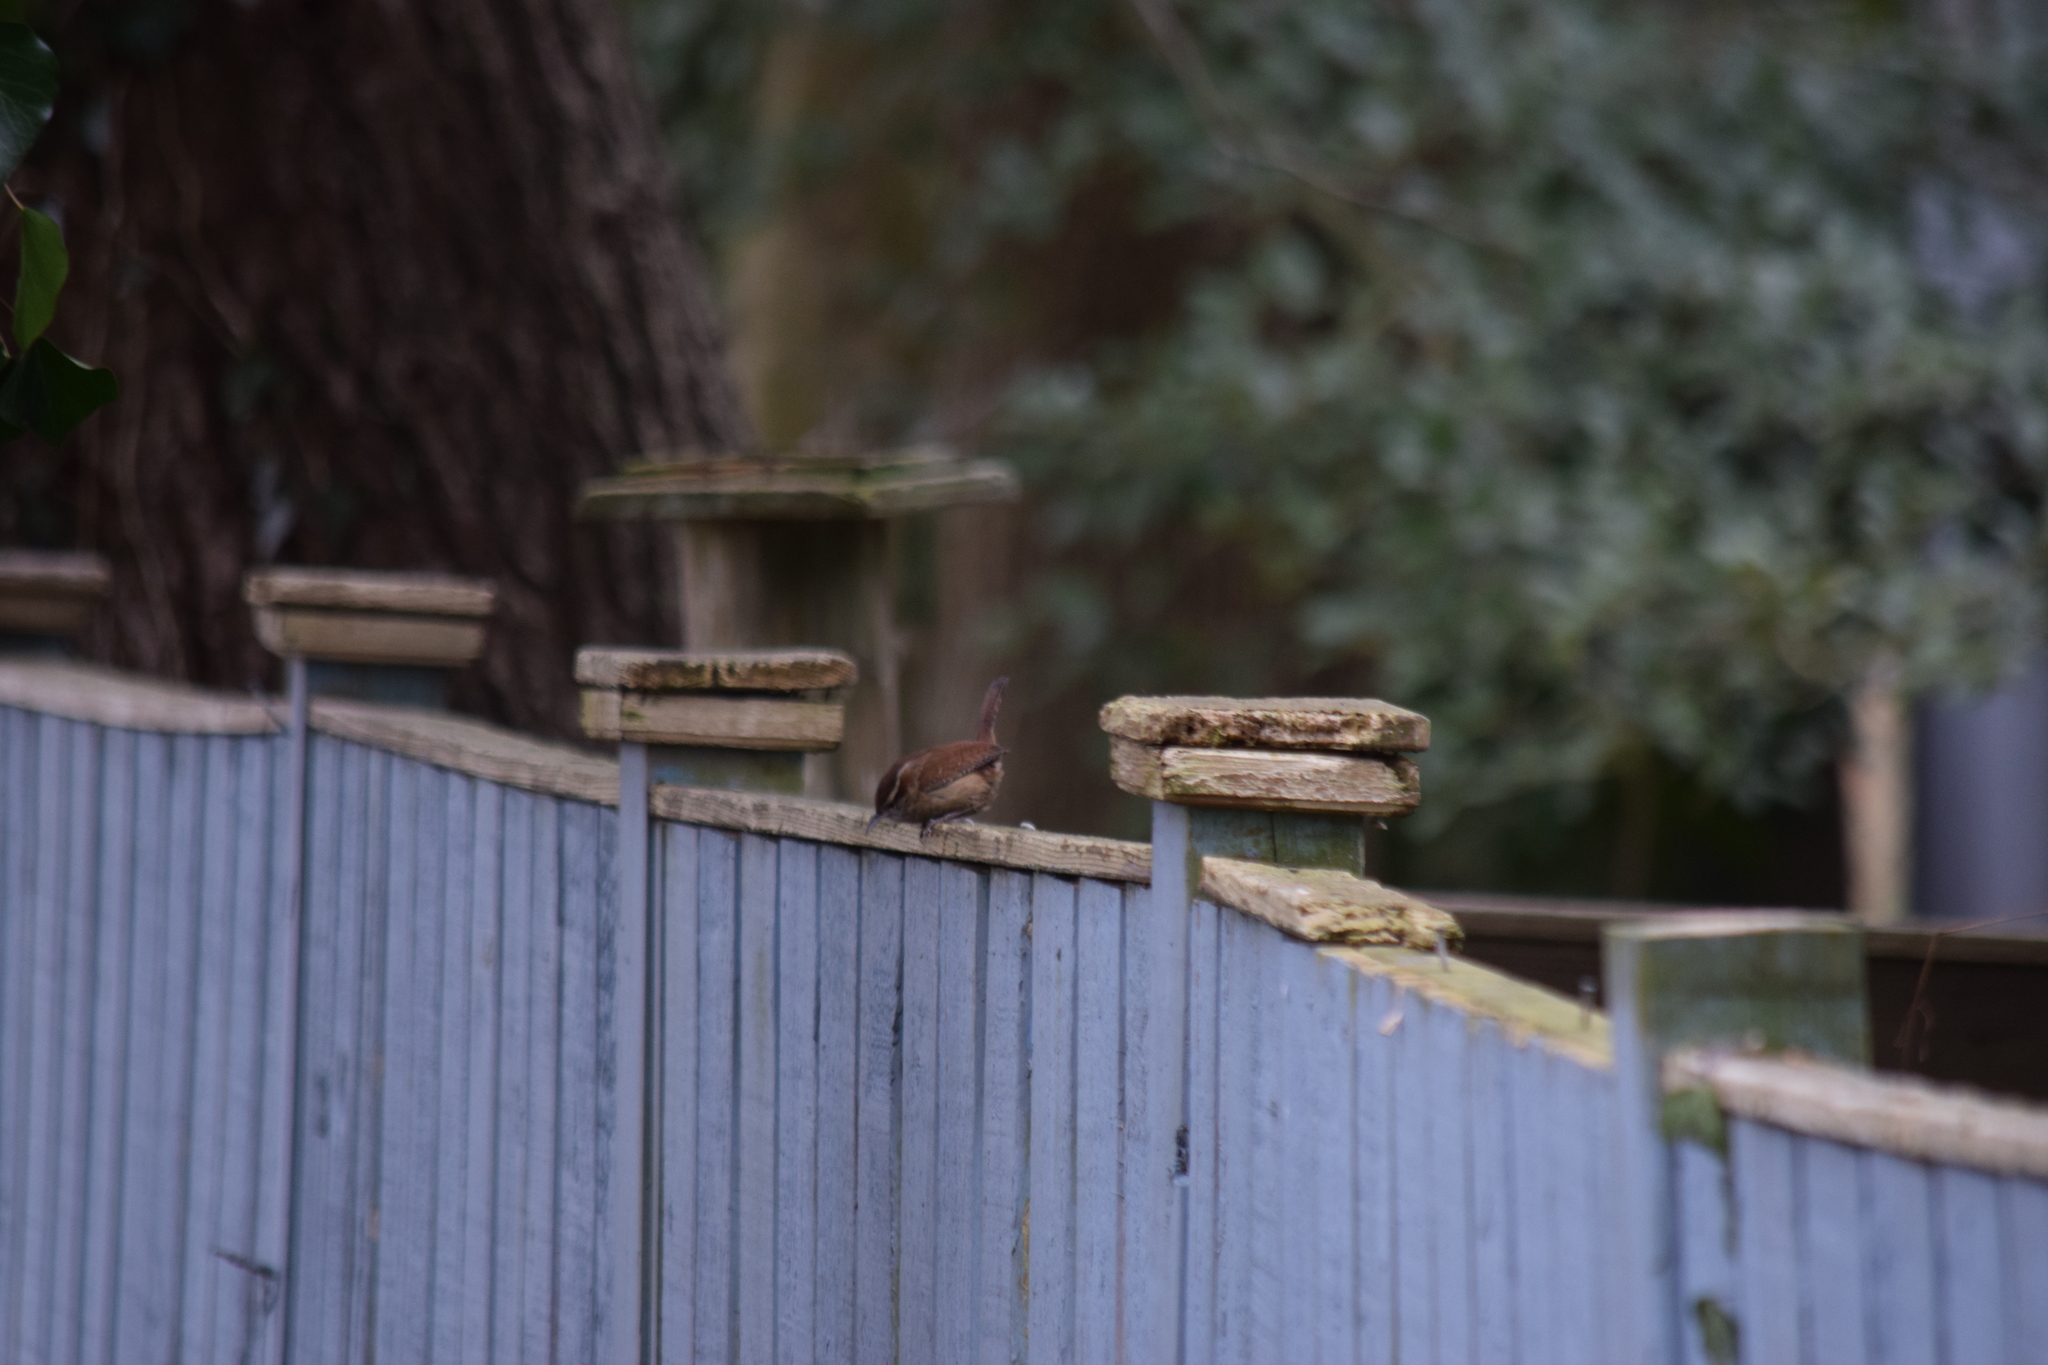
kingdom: Animalia
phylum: Chordata
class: Aves
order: Passeriformes
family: Troglodytidae
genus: Thryothorus
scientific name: Thryothorus ludovicianus
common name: Carolina wren
